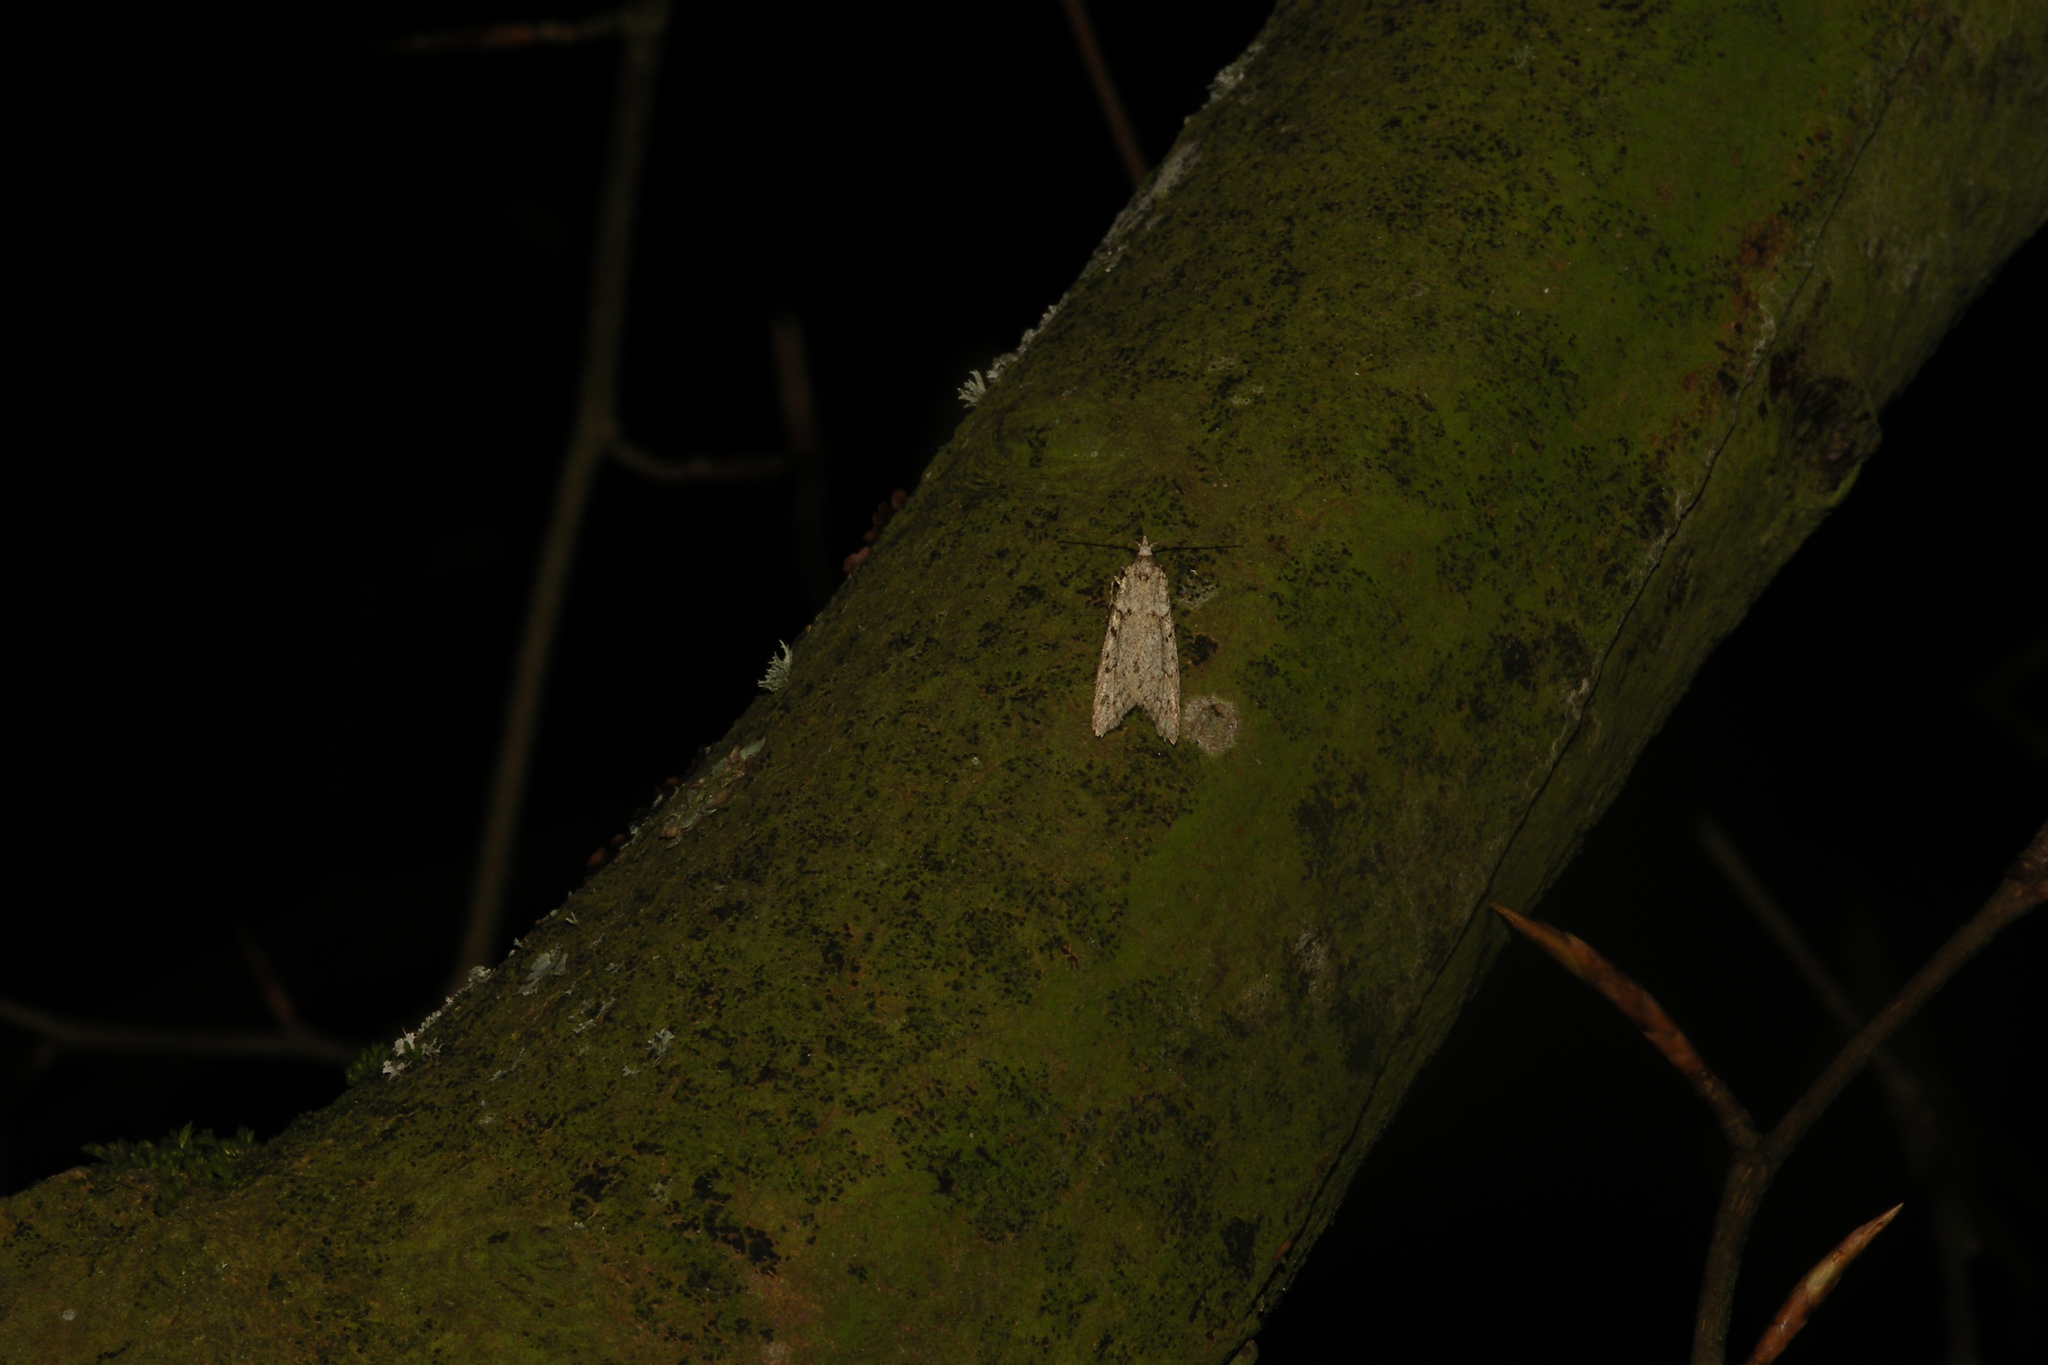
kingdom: Animalia
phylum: Arthropoda
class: Insecta
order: Lepidoptera
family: Lypusidae
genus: Diurnea
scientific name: Diurnea fagella
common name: March tubic
